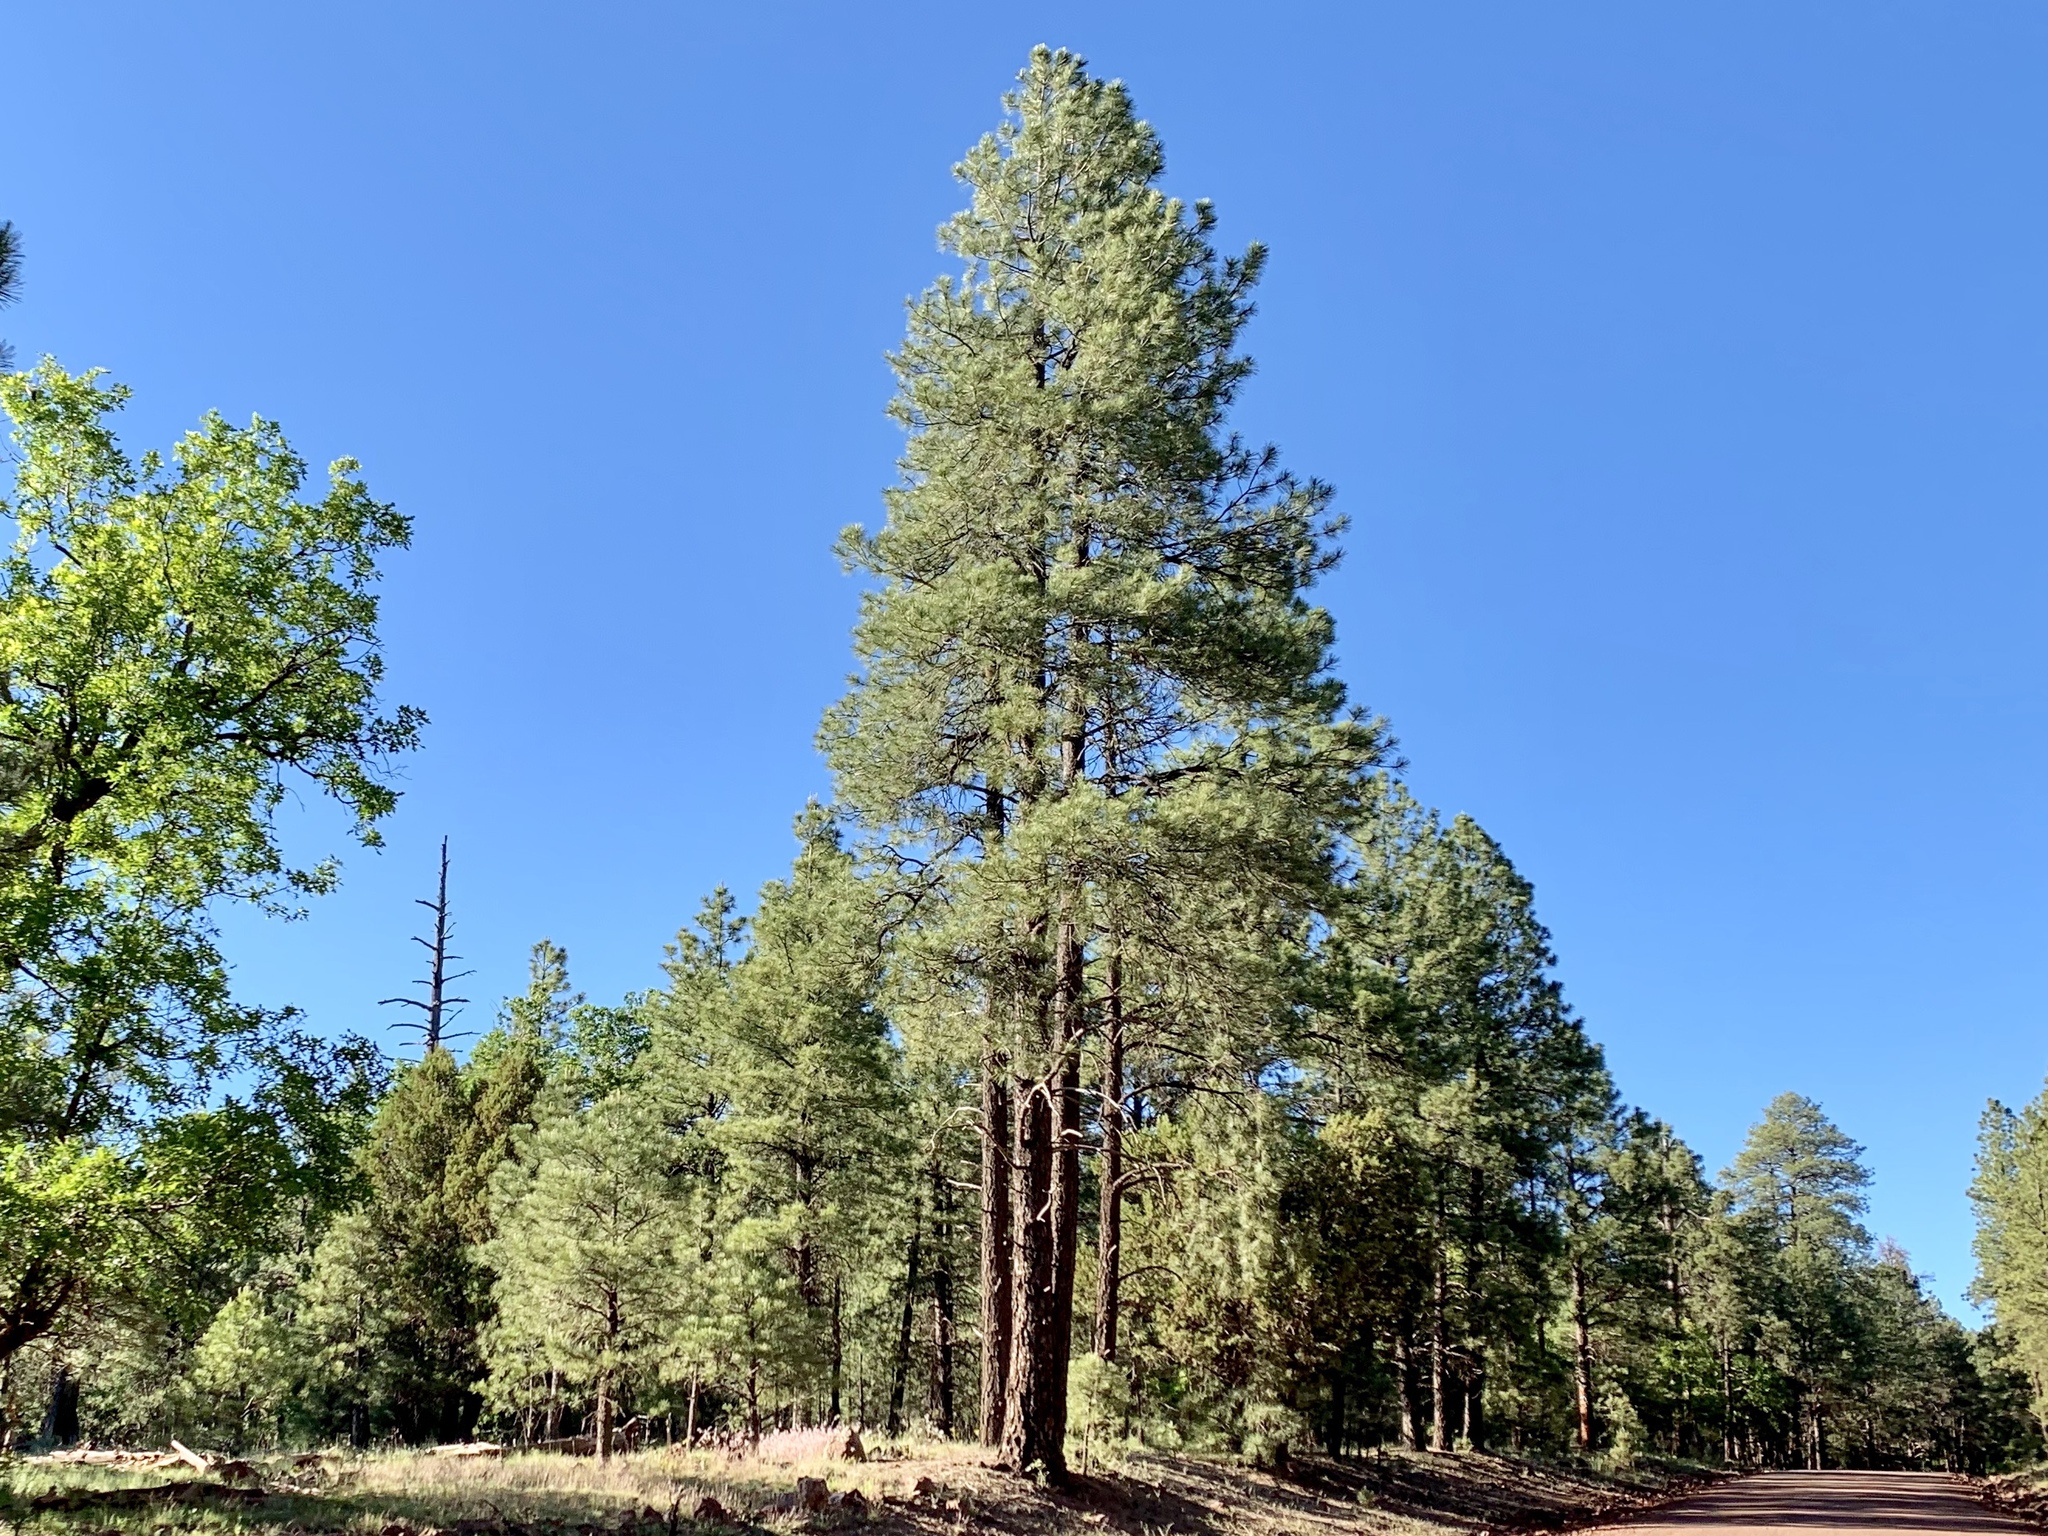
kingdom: Plantae
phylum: Tracheophyta
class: Pinopsida
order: Pinales
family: Pinaceae
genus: Pinus
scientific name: Pinus ponderosa
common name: Western yellow-pine
